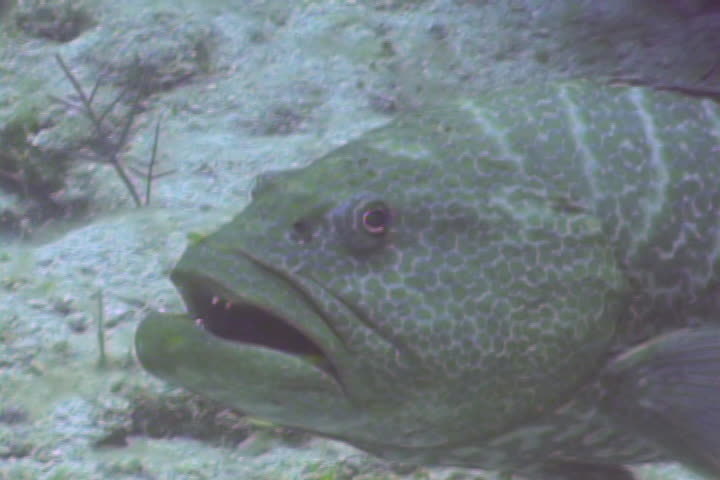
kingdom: Animalia
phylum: Chordata
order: Perciformes
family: Serranidae
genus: Mycteroperca
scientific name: Mycteroperca tigris
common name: Tiger grouper
